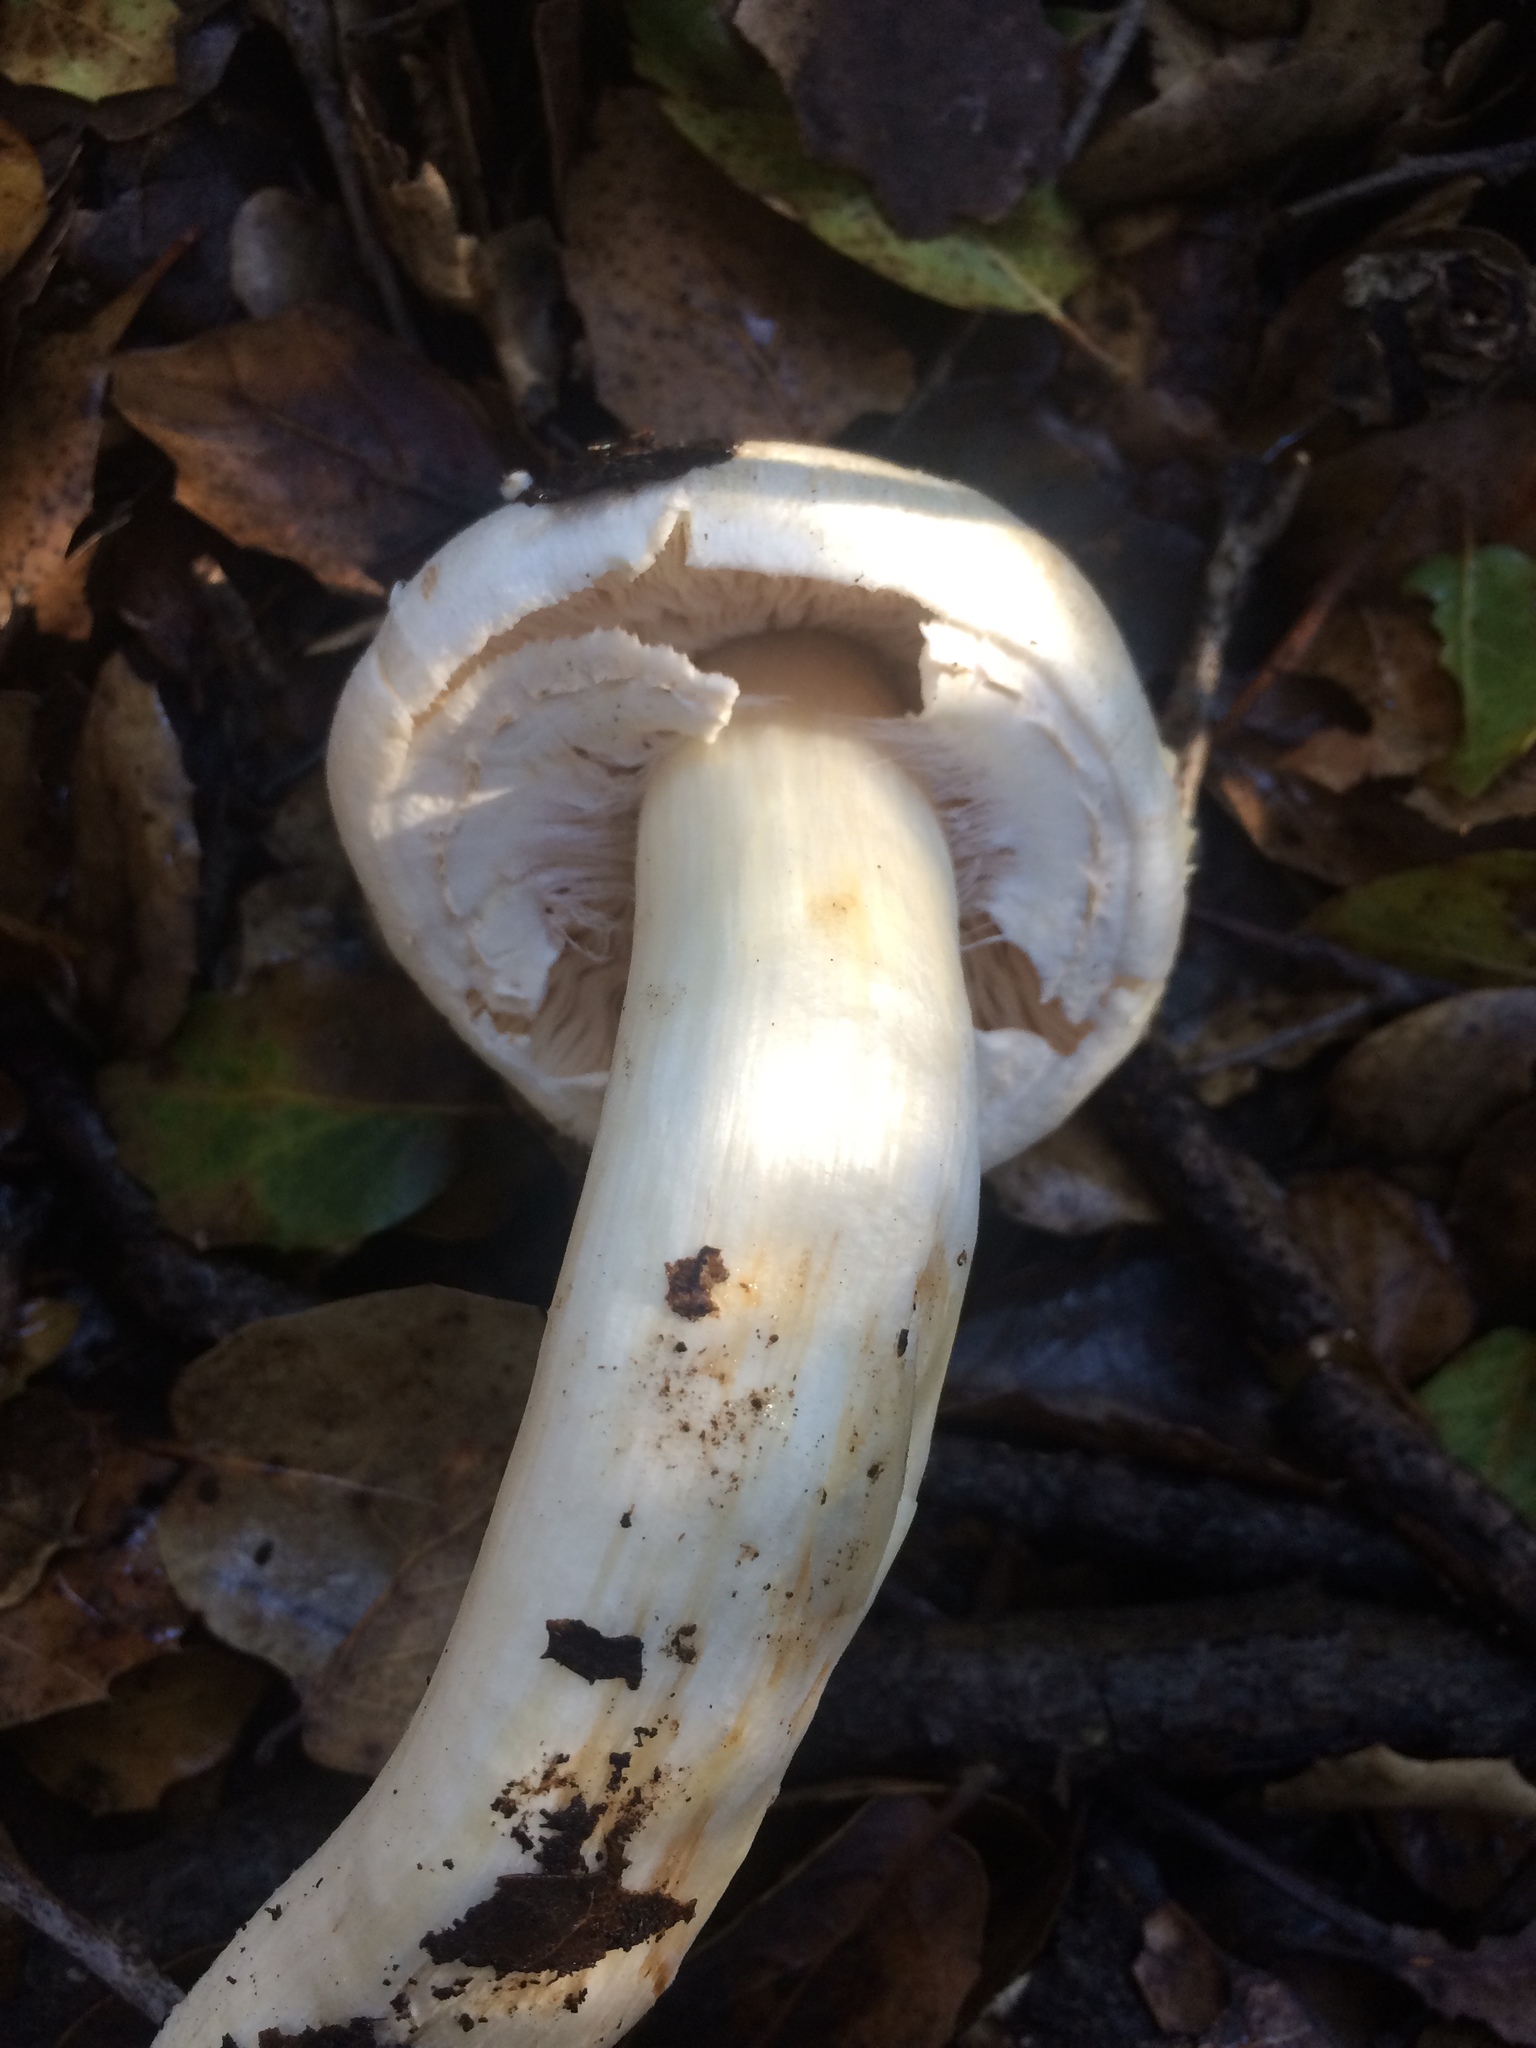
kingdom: Fungi
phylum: Basidiomycota
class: Agaricomycetes
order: Agaricales
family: Agaricaceae
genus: Agaricus
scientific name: Agaricus xanthodermus
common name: Yellow stainer
